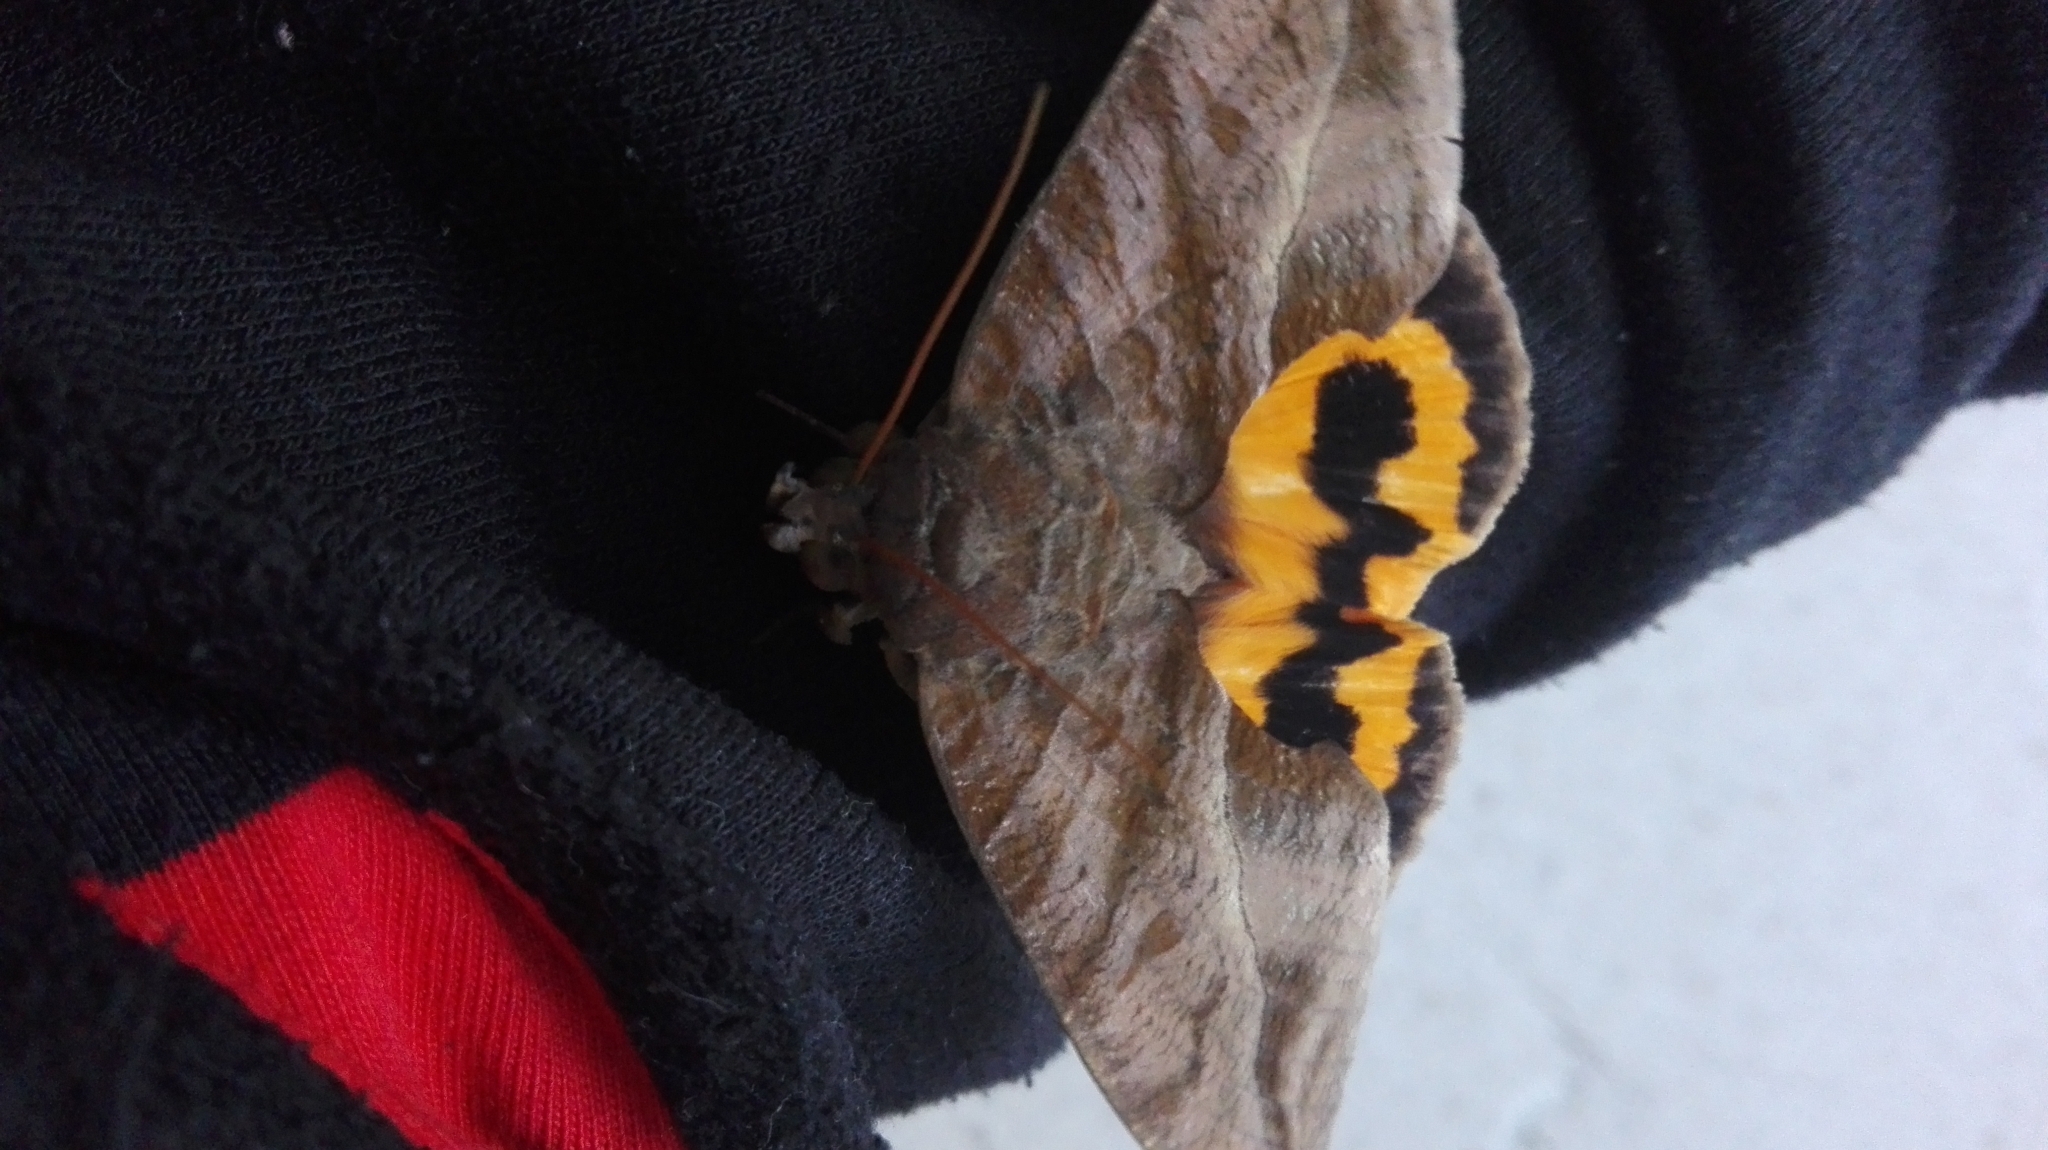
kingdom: Animalia
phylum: Arthropoda
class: Insecta
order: Lepidoptera
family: Erebidae
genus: Eudocima
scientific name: Eudocima serpentifera
